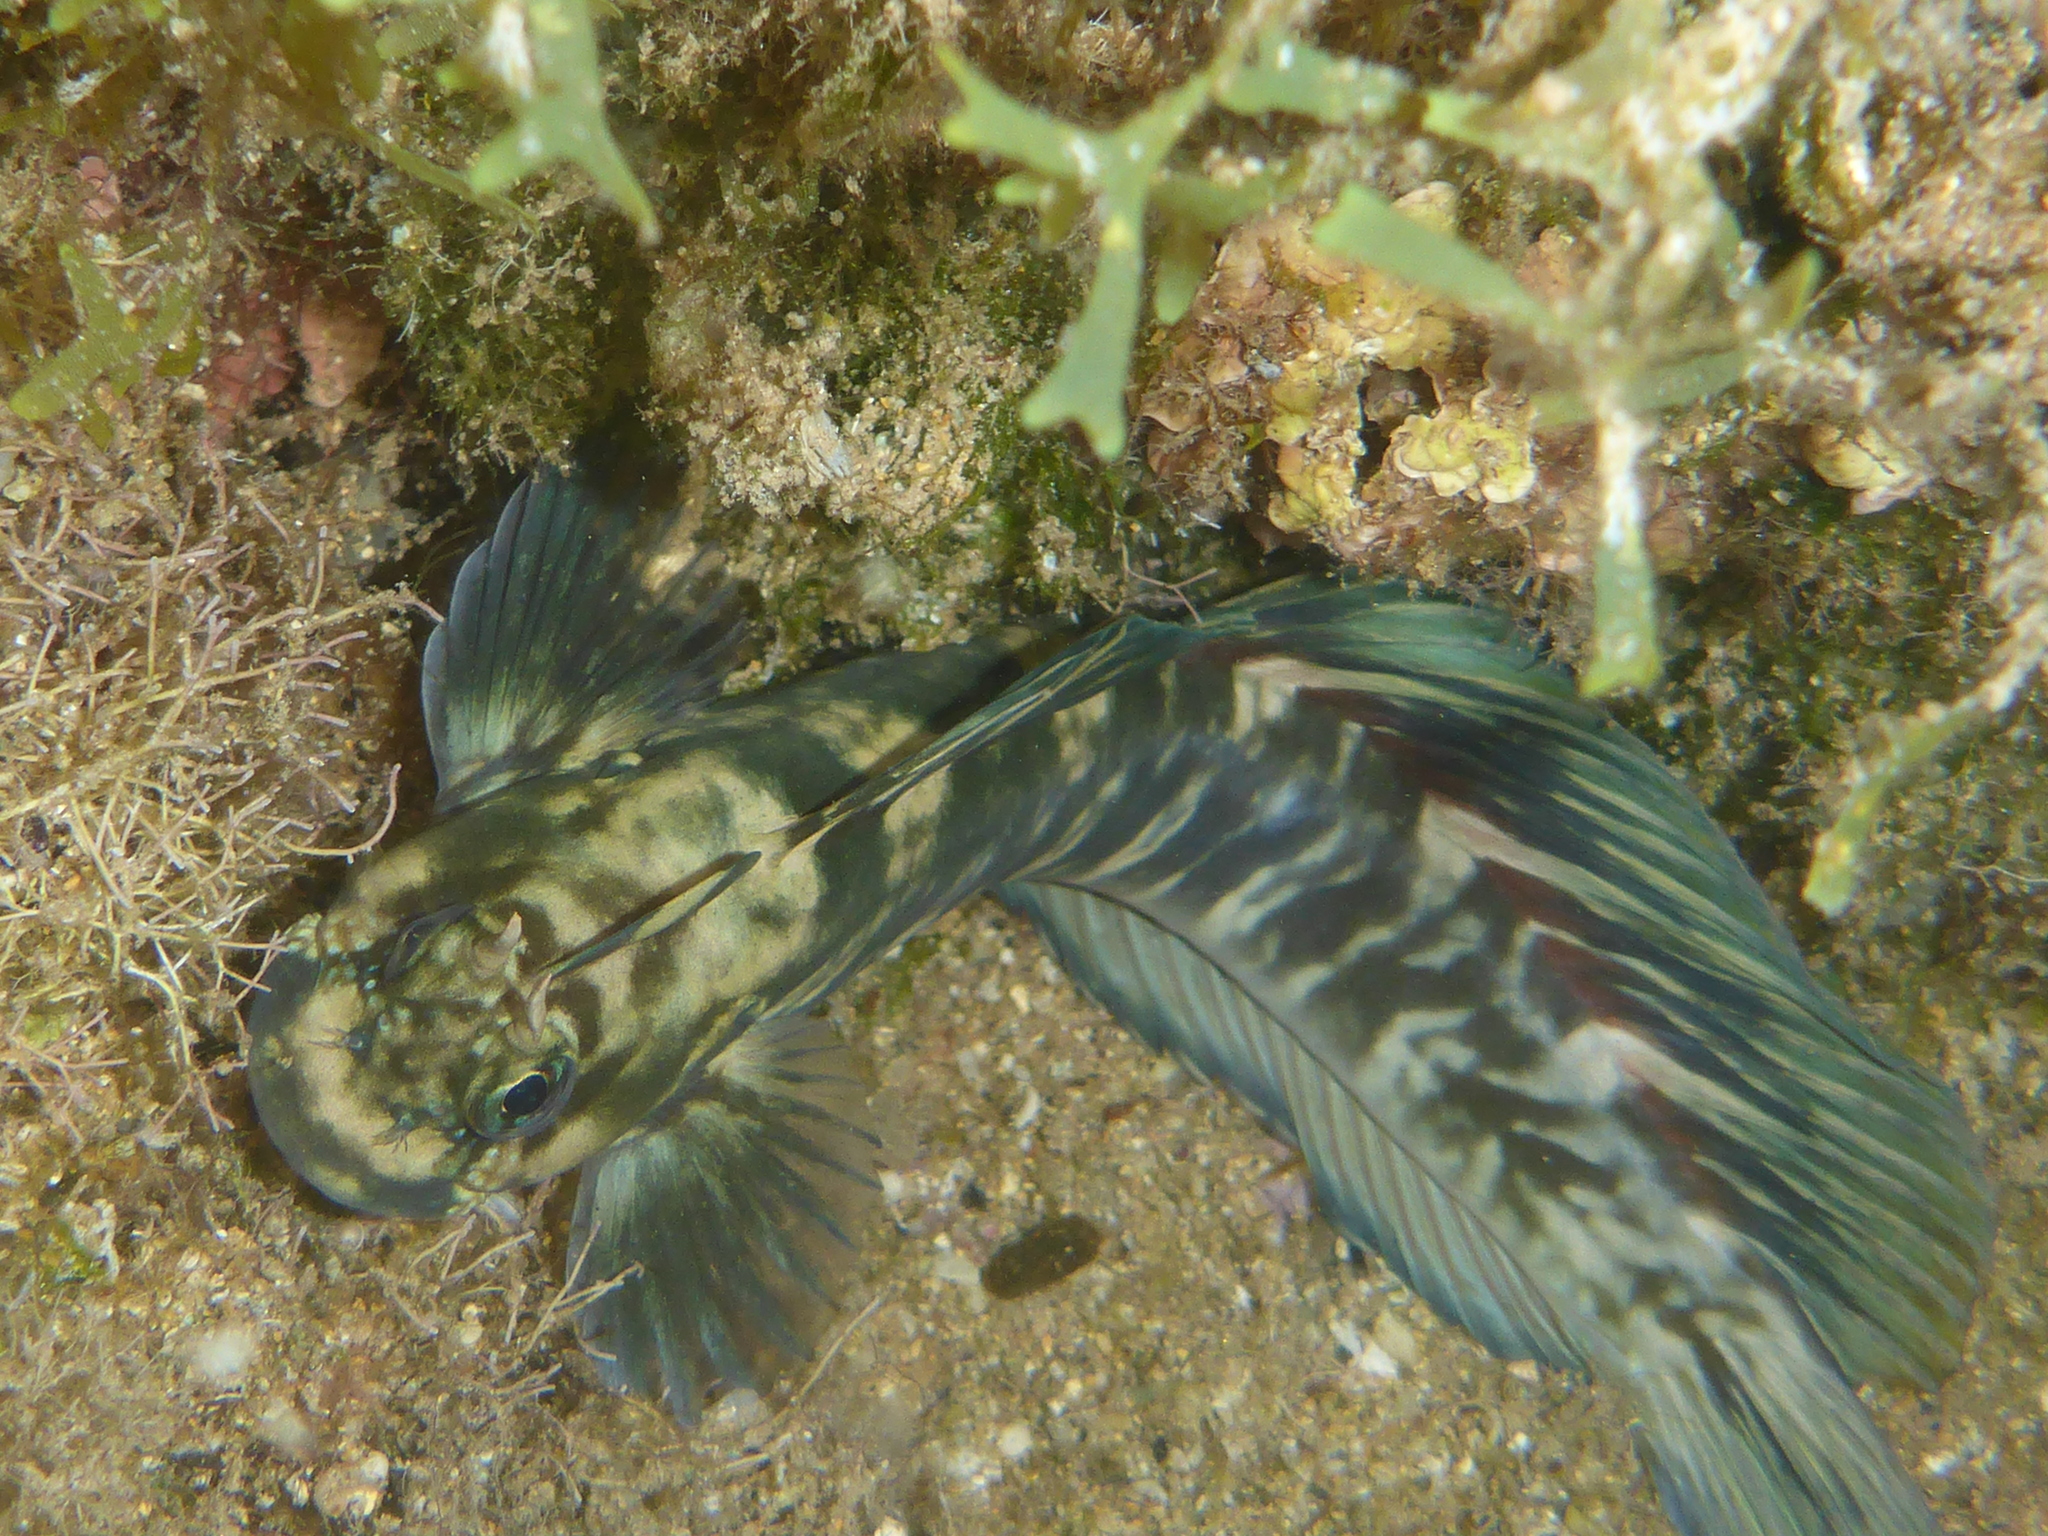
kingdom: Animalia
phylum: Chordata
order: Perciformes
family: Blenniidae
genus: Istiblennius
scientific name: Istiblennius zebra
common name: Zebra blenny
